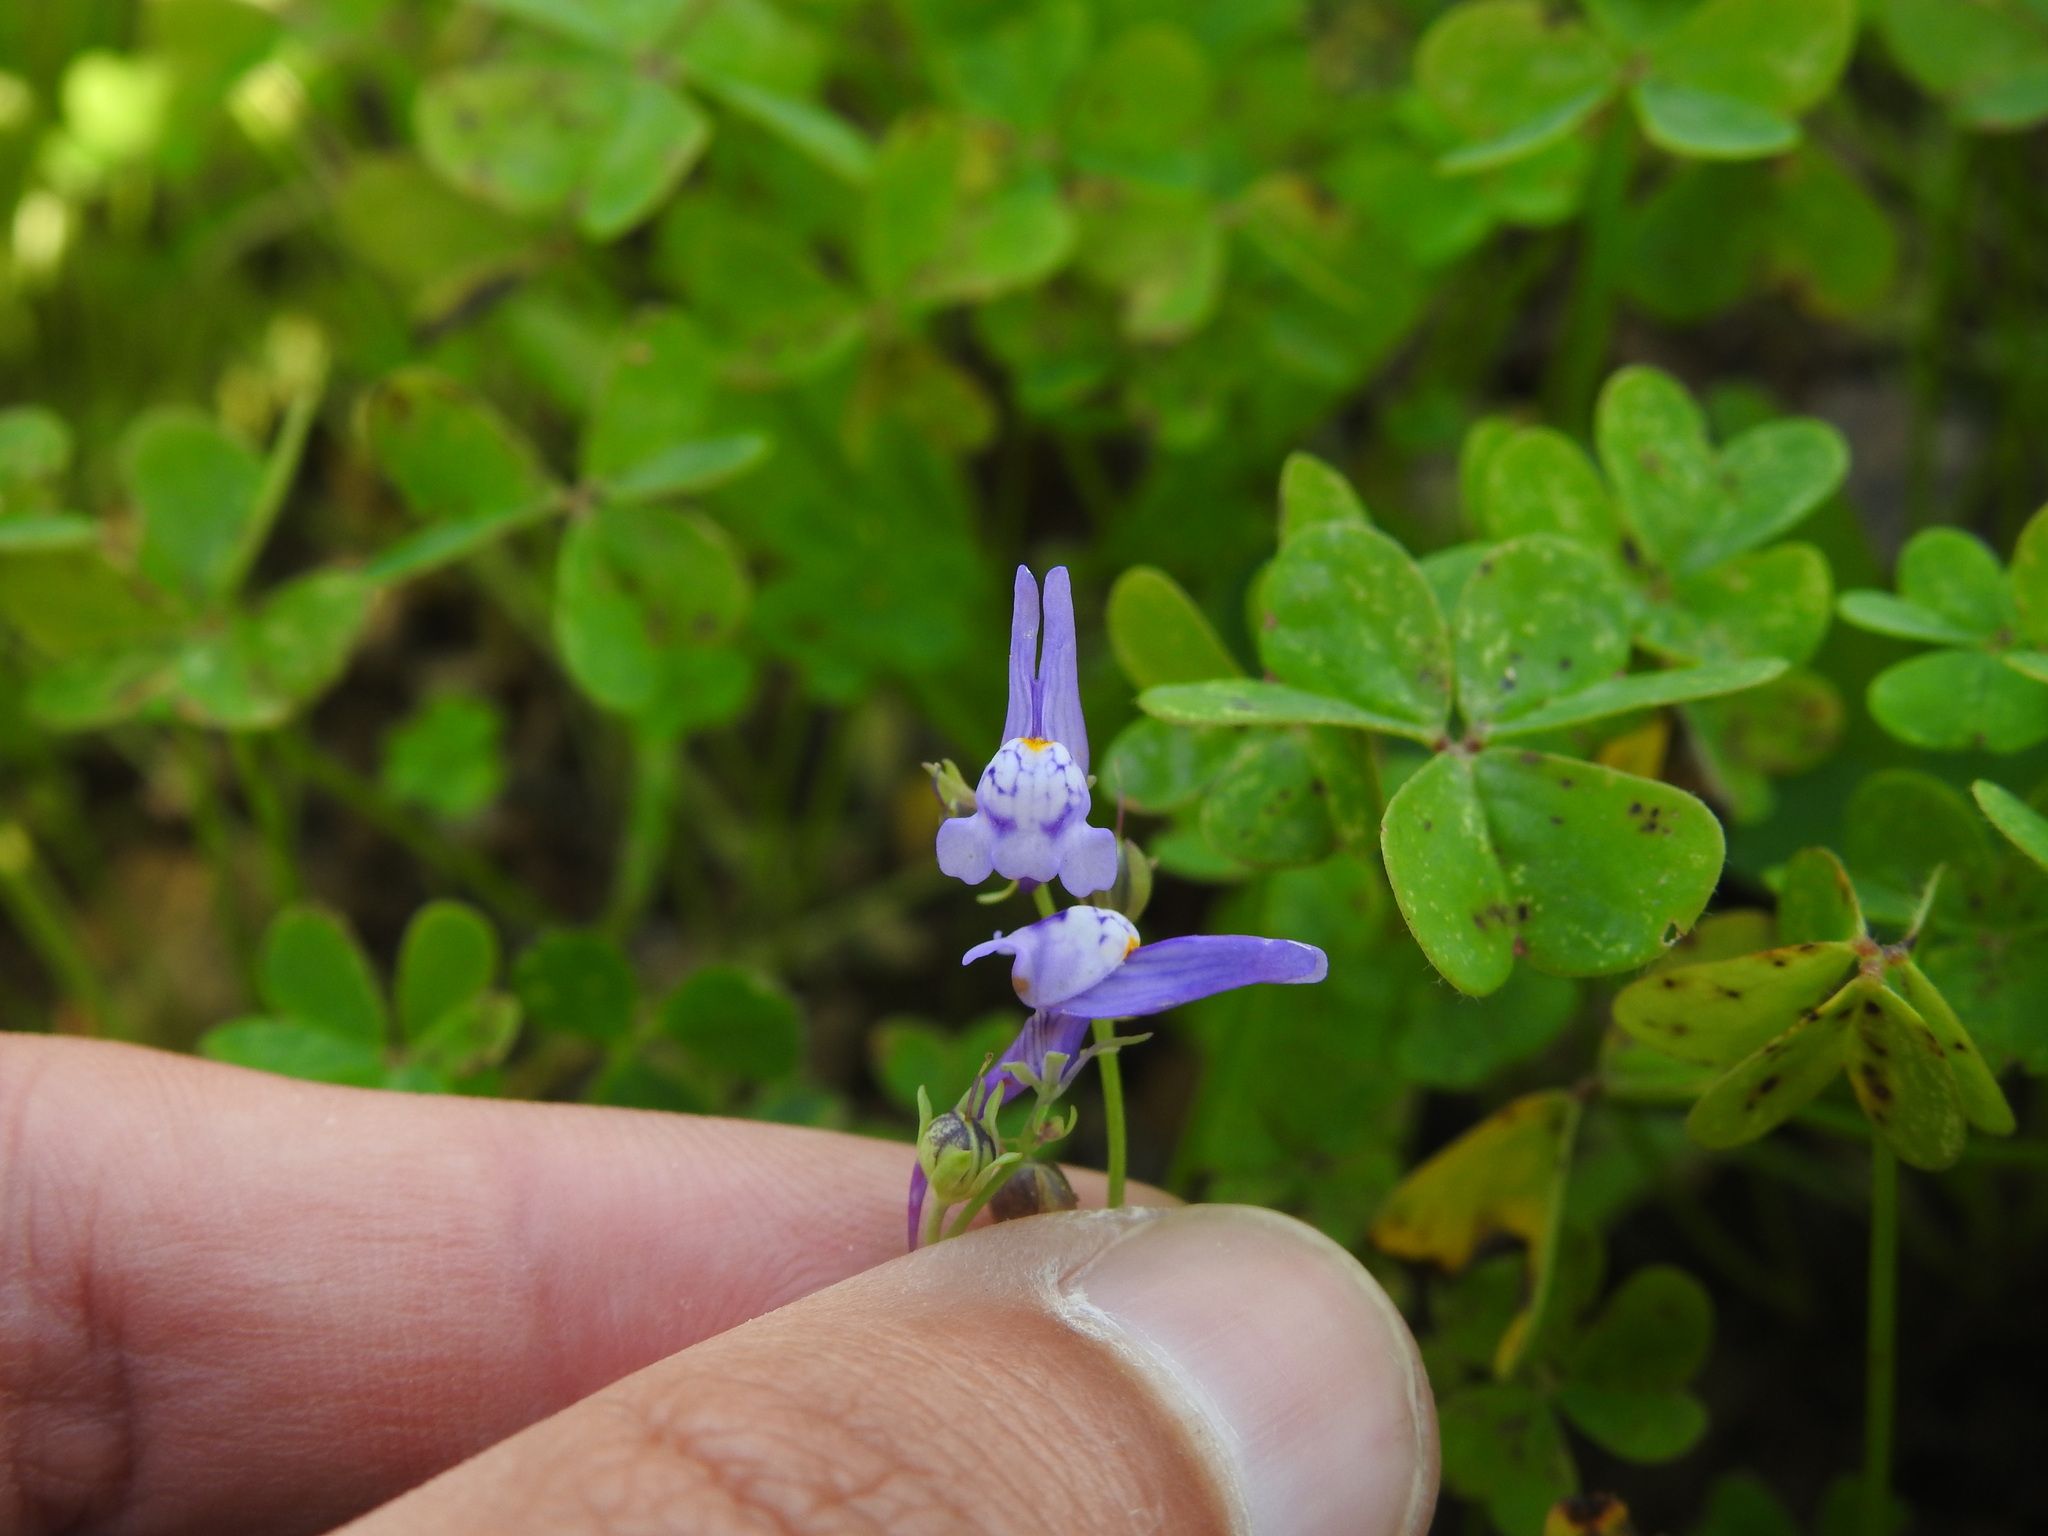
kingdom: Plantae
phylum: Tracheophyta
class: Magnoliopsida
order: Lamiales
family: Plantaginaceae
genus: Linaria
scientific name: Linaria pseudamethystea
